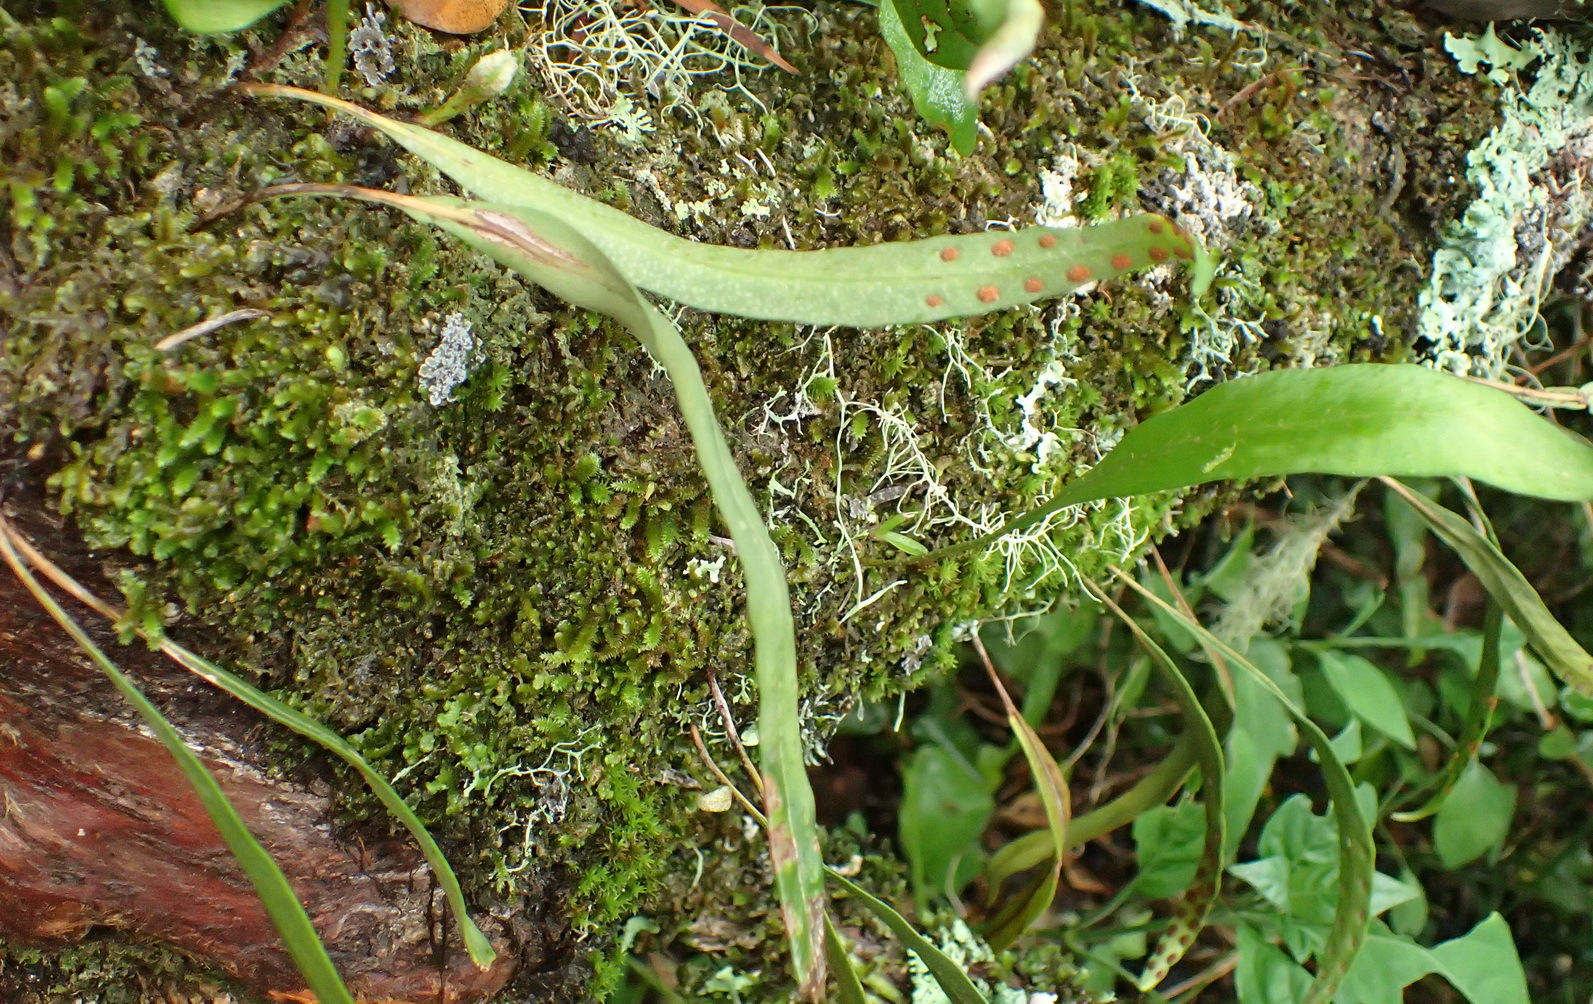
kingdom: Plantae
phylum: Tracheophyta
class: Polypodiopsida
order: Polypodiales
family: Polypodiaceae
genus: Pleopeltis
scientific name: Pleopeltis macrocarpa
